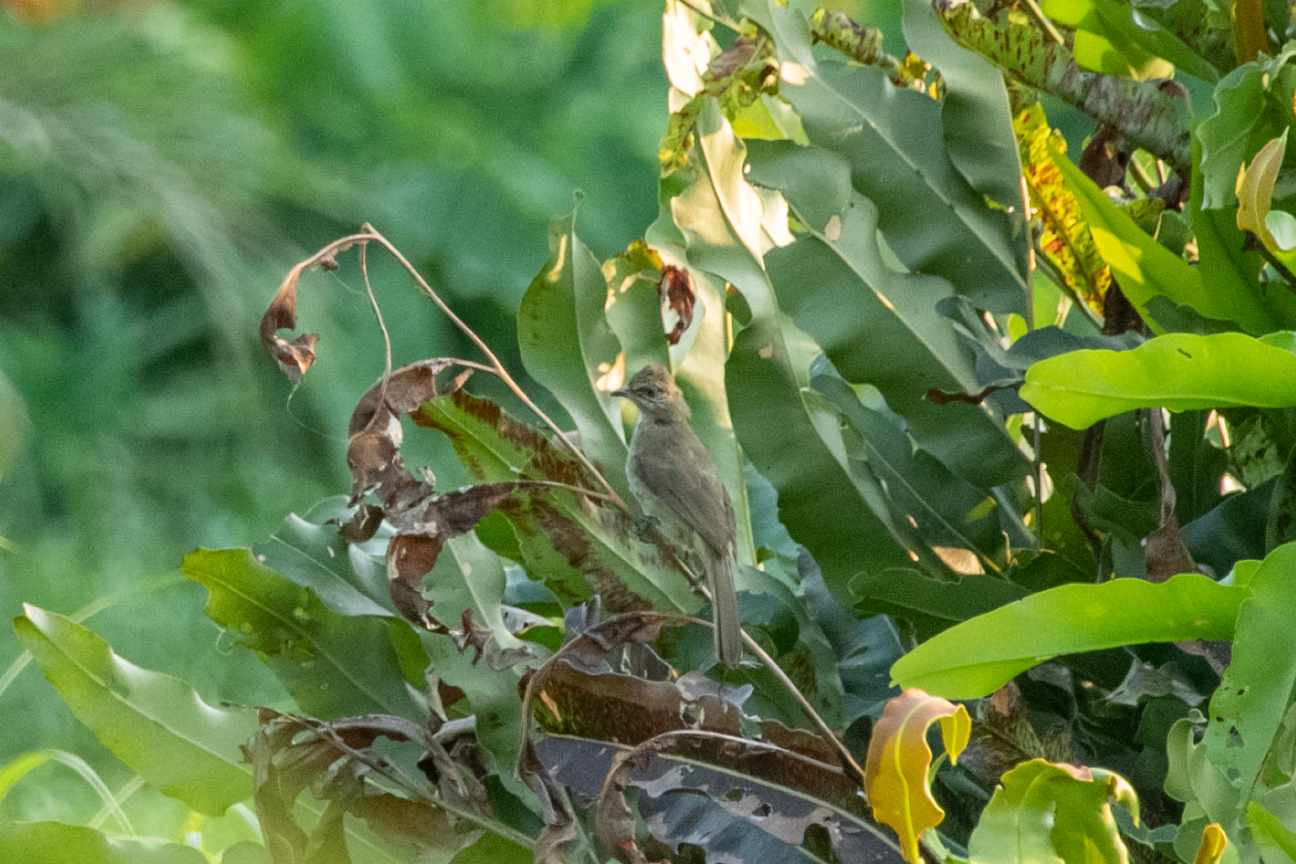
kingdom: Animalia
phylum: Chordata
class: Aves
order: Passeriformes
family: Pycnonotidae
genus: Pycnonotus
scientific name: Pycnonotus blanfordi
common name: Streak-eared bulbul
